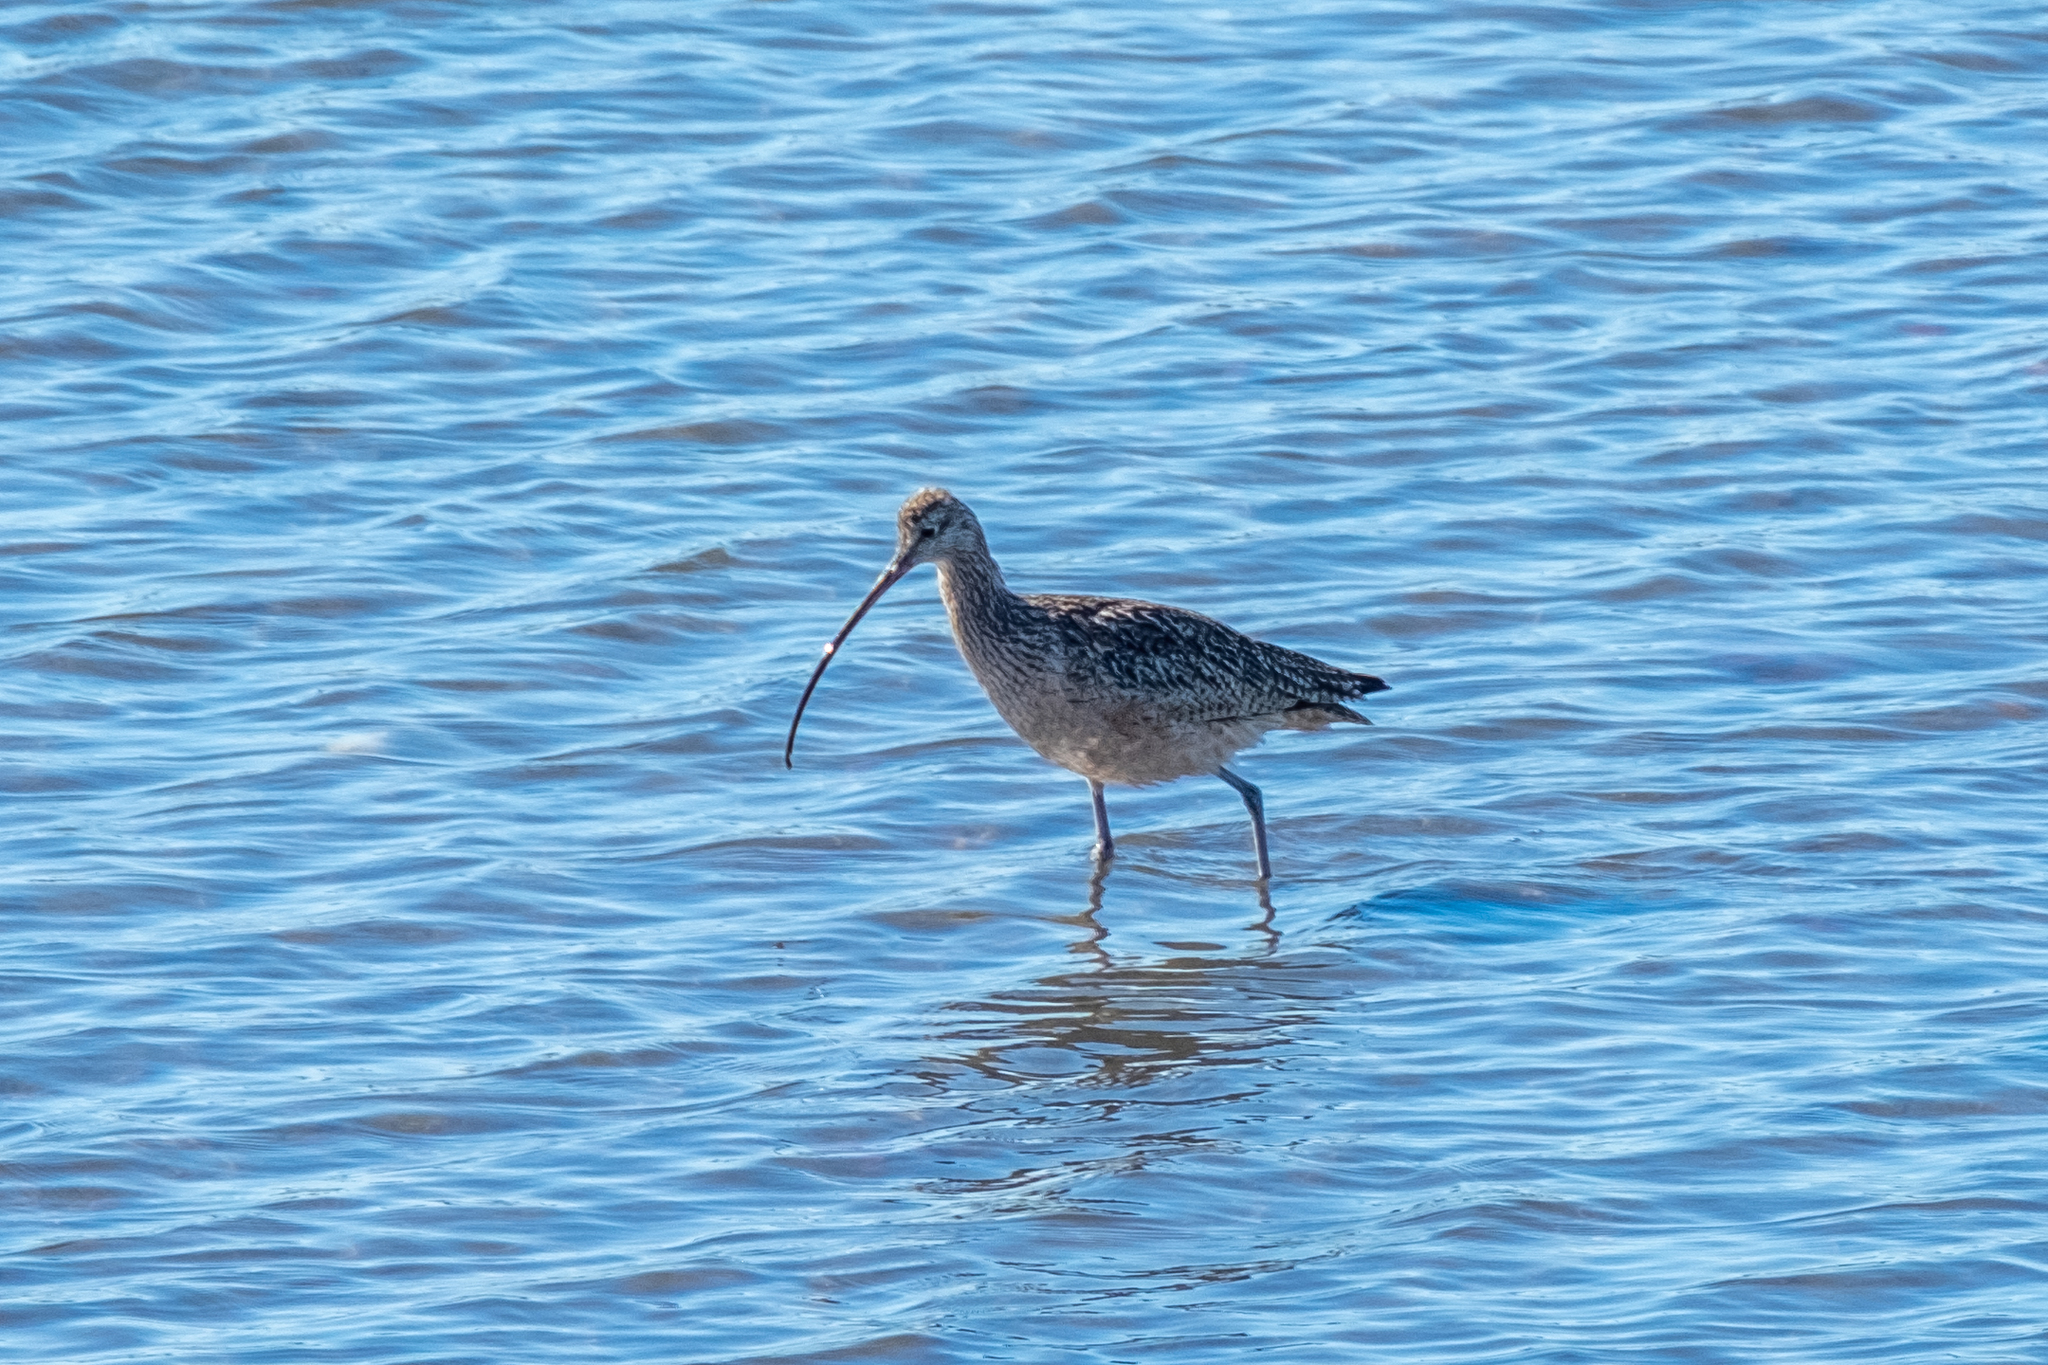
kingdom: Animalia
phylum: Chordata
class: Aves
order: Charadriiformes
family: Scolopacidae
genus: Numenius
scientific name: Numenius americanus
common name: Long-billed curlew
